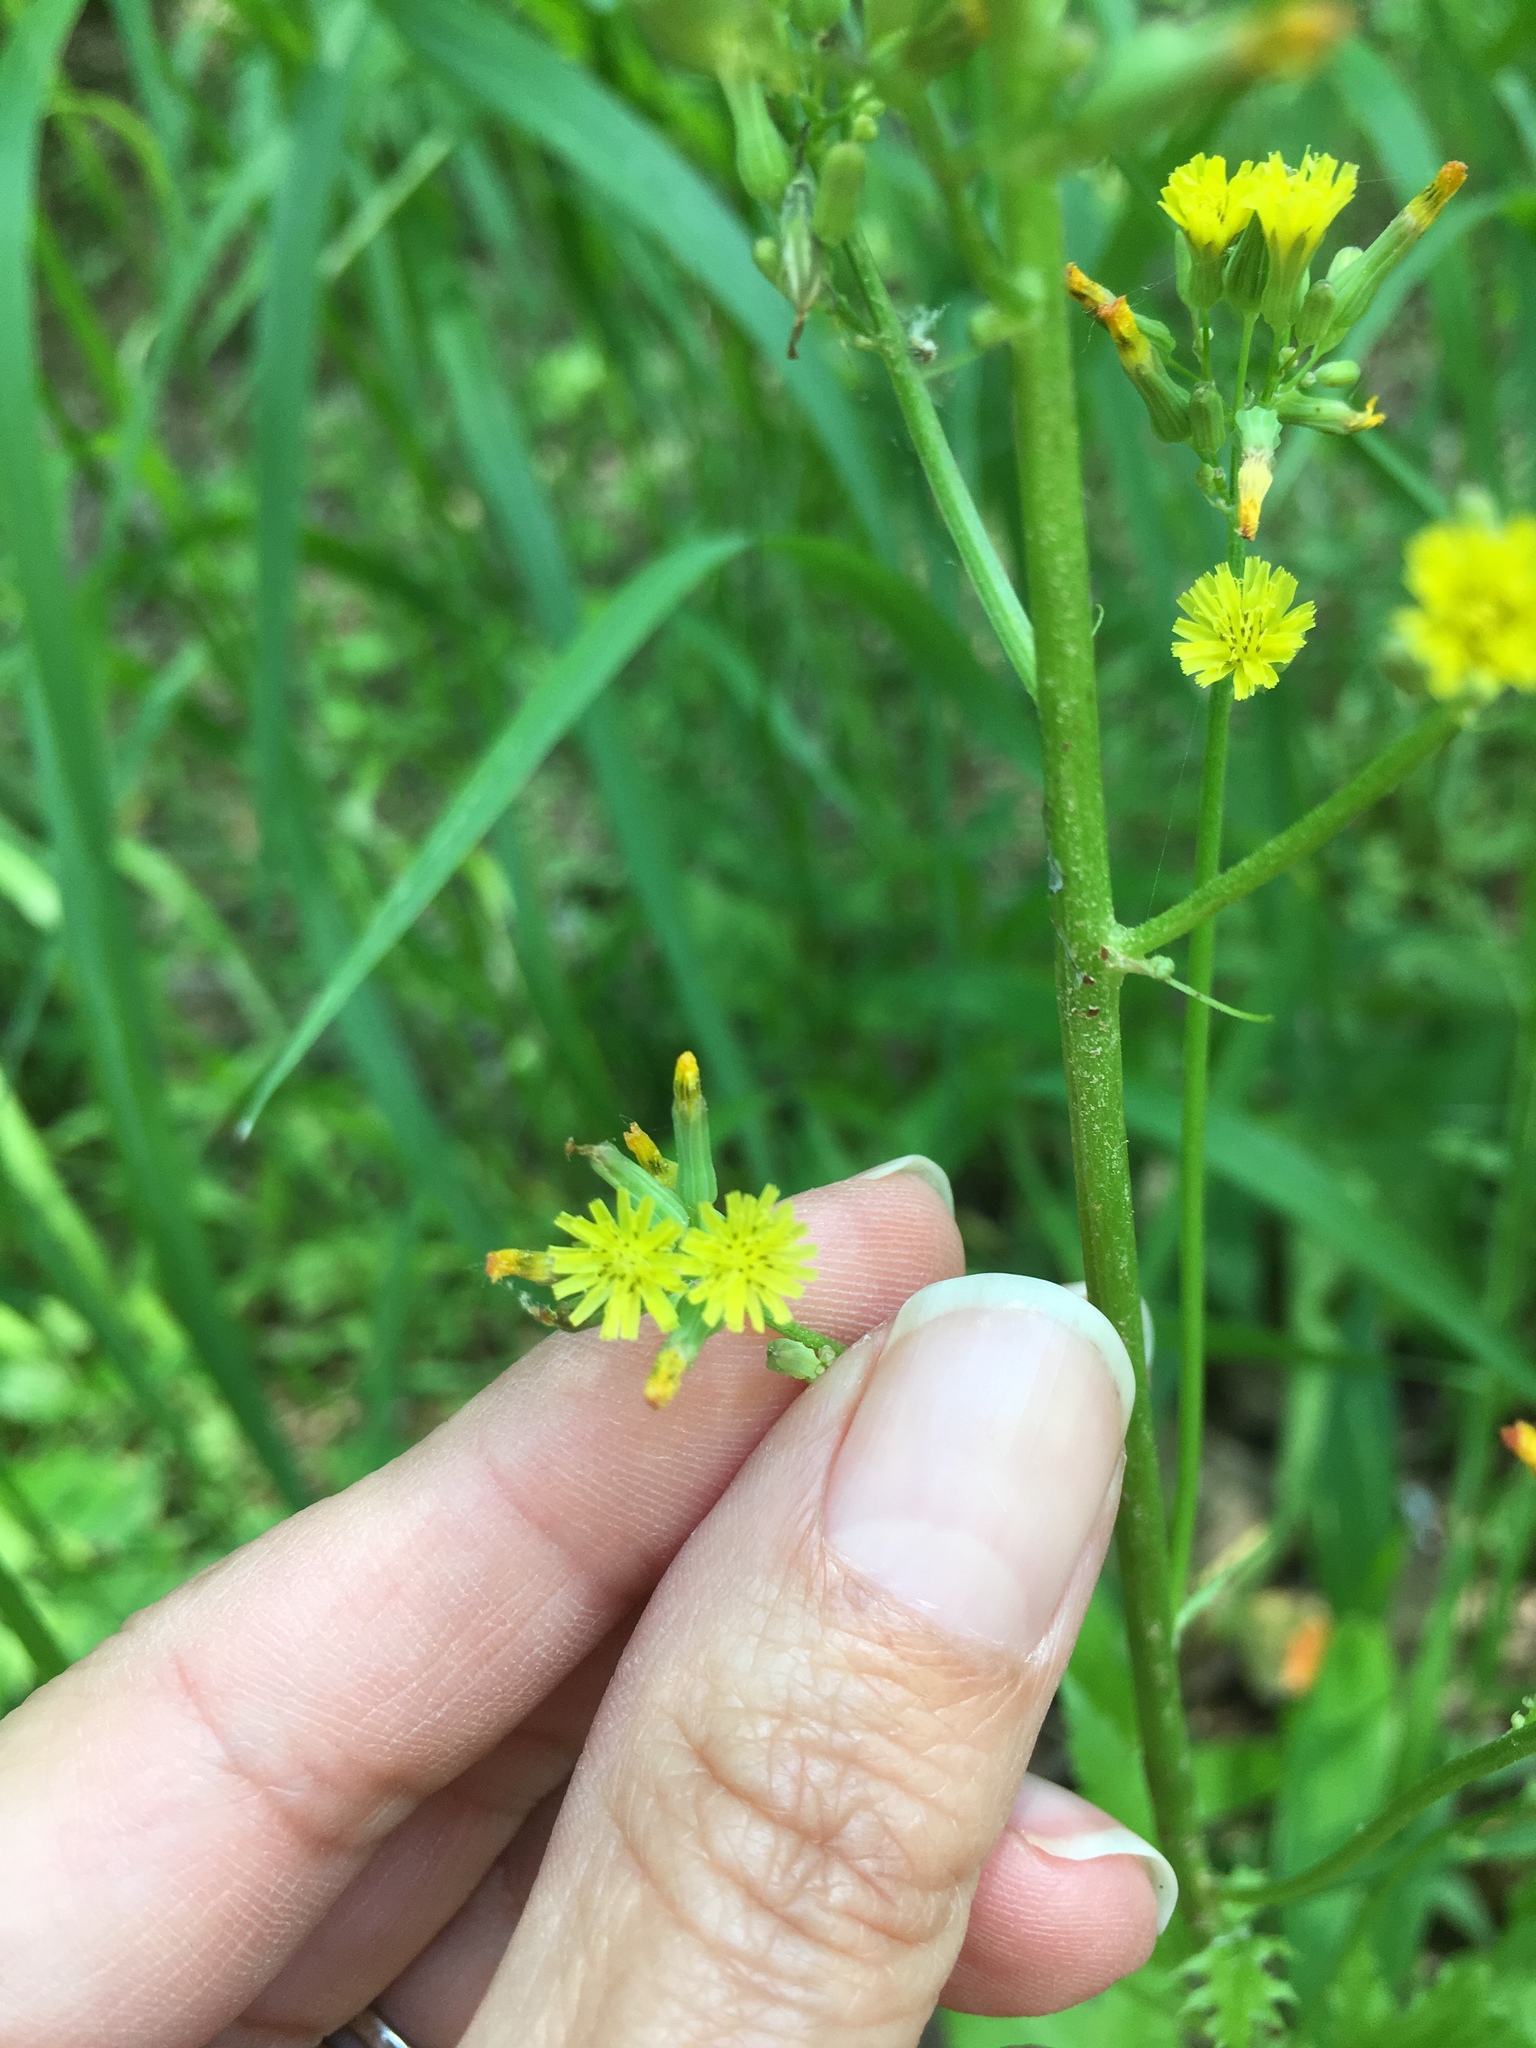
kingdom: Plantae
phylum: Tracheophyta
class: Magnoliopsida
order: Asterales
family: Asteraceae
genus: Youngia
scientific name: Youngia japonica
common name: Oriental false hawksbeard
